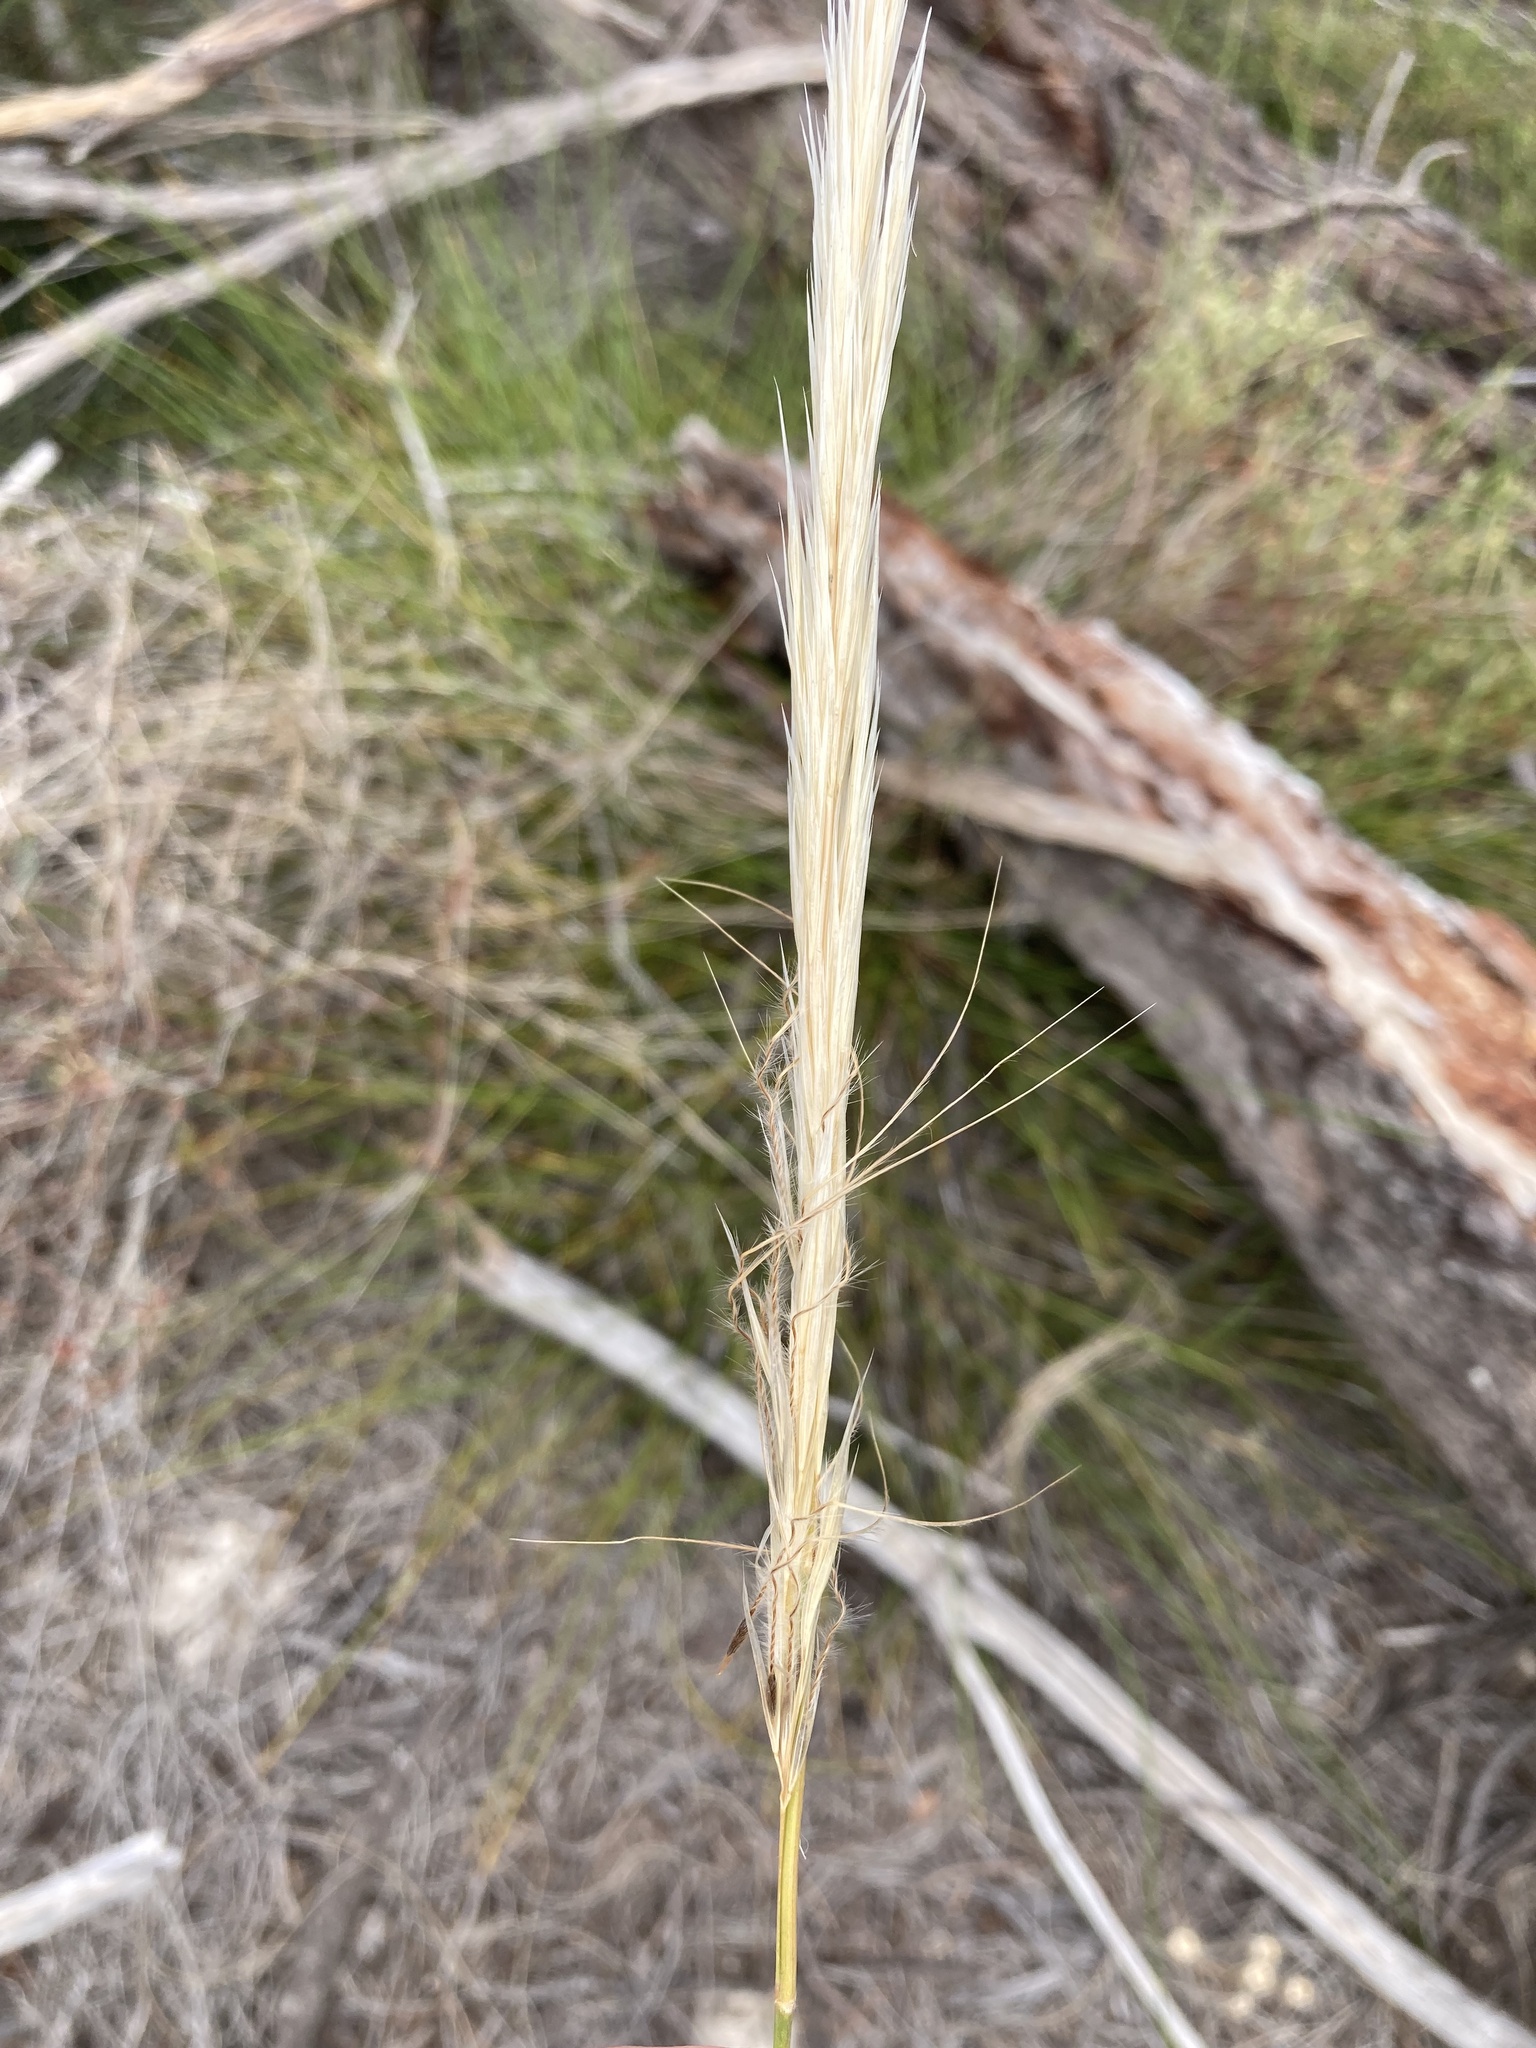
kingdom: Plantae
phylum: Tracheophyta
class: Liliopsida
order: Poales
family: Poaceae
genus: Austrostipa
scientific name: Austrostipa mollis
